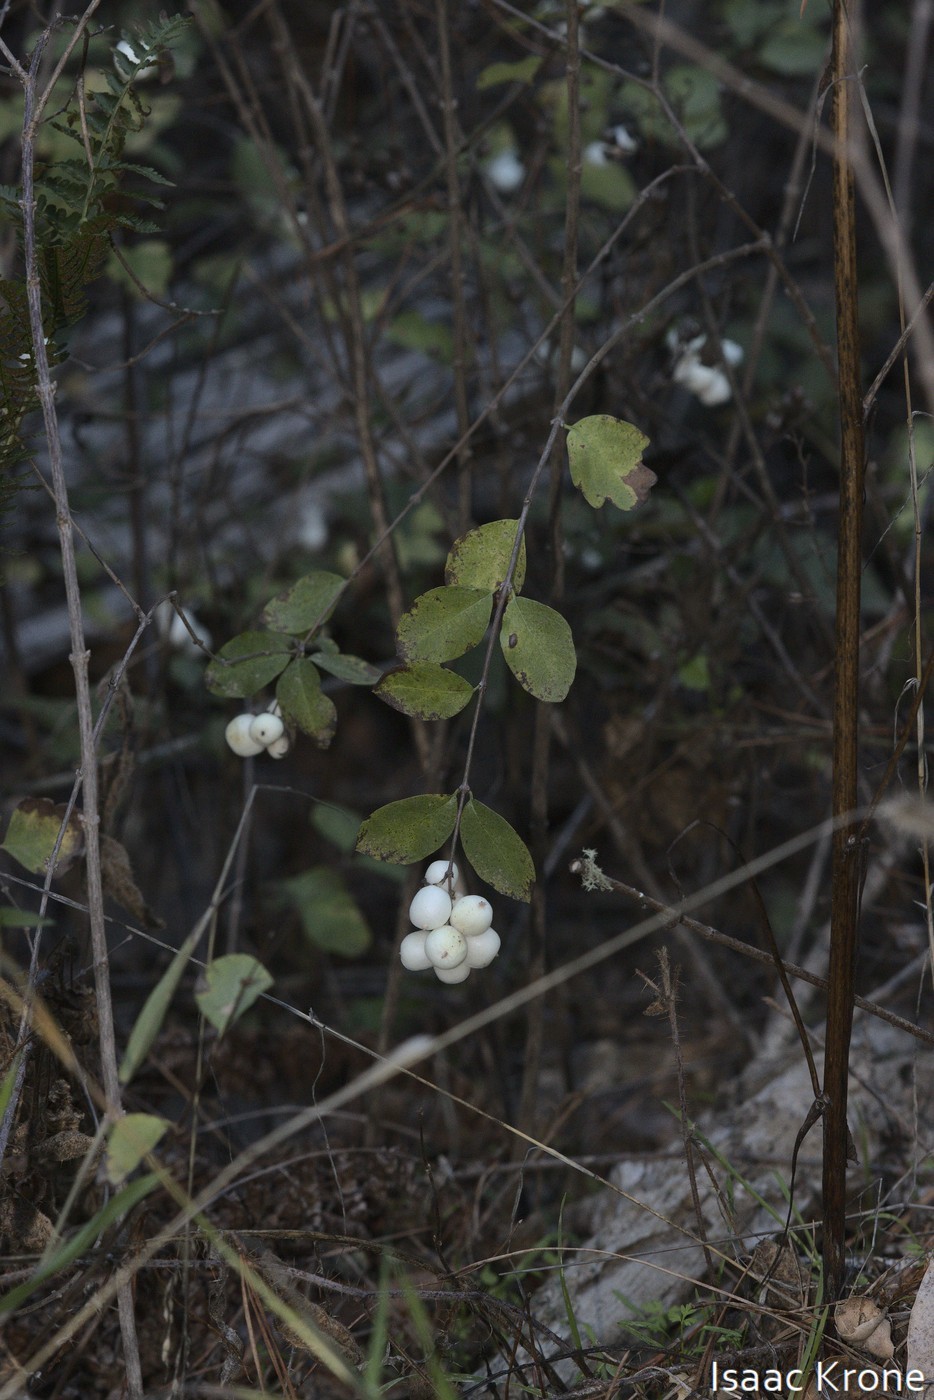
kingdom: Plantae
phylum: Tracheophyta
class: Magnoliopsida
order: Dipsacales
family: Caprifoliaceae
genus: Symphoricarpos
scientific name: Symphoricarpos albus
